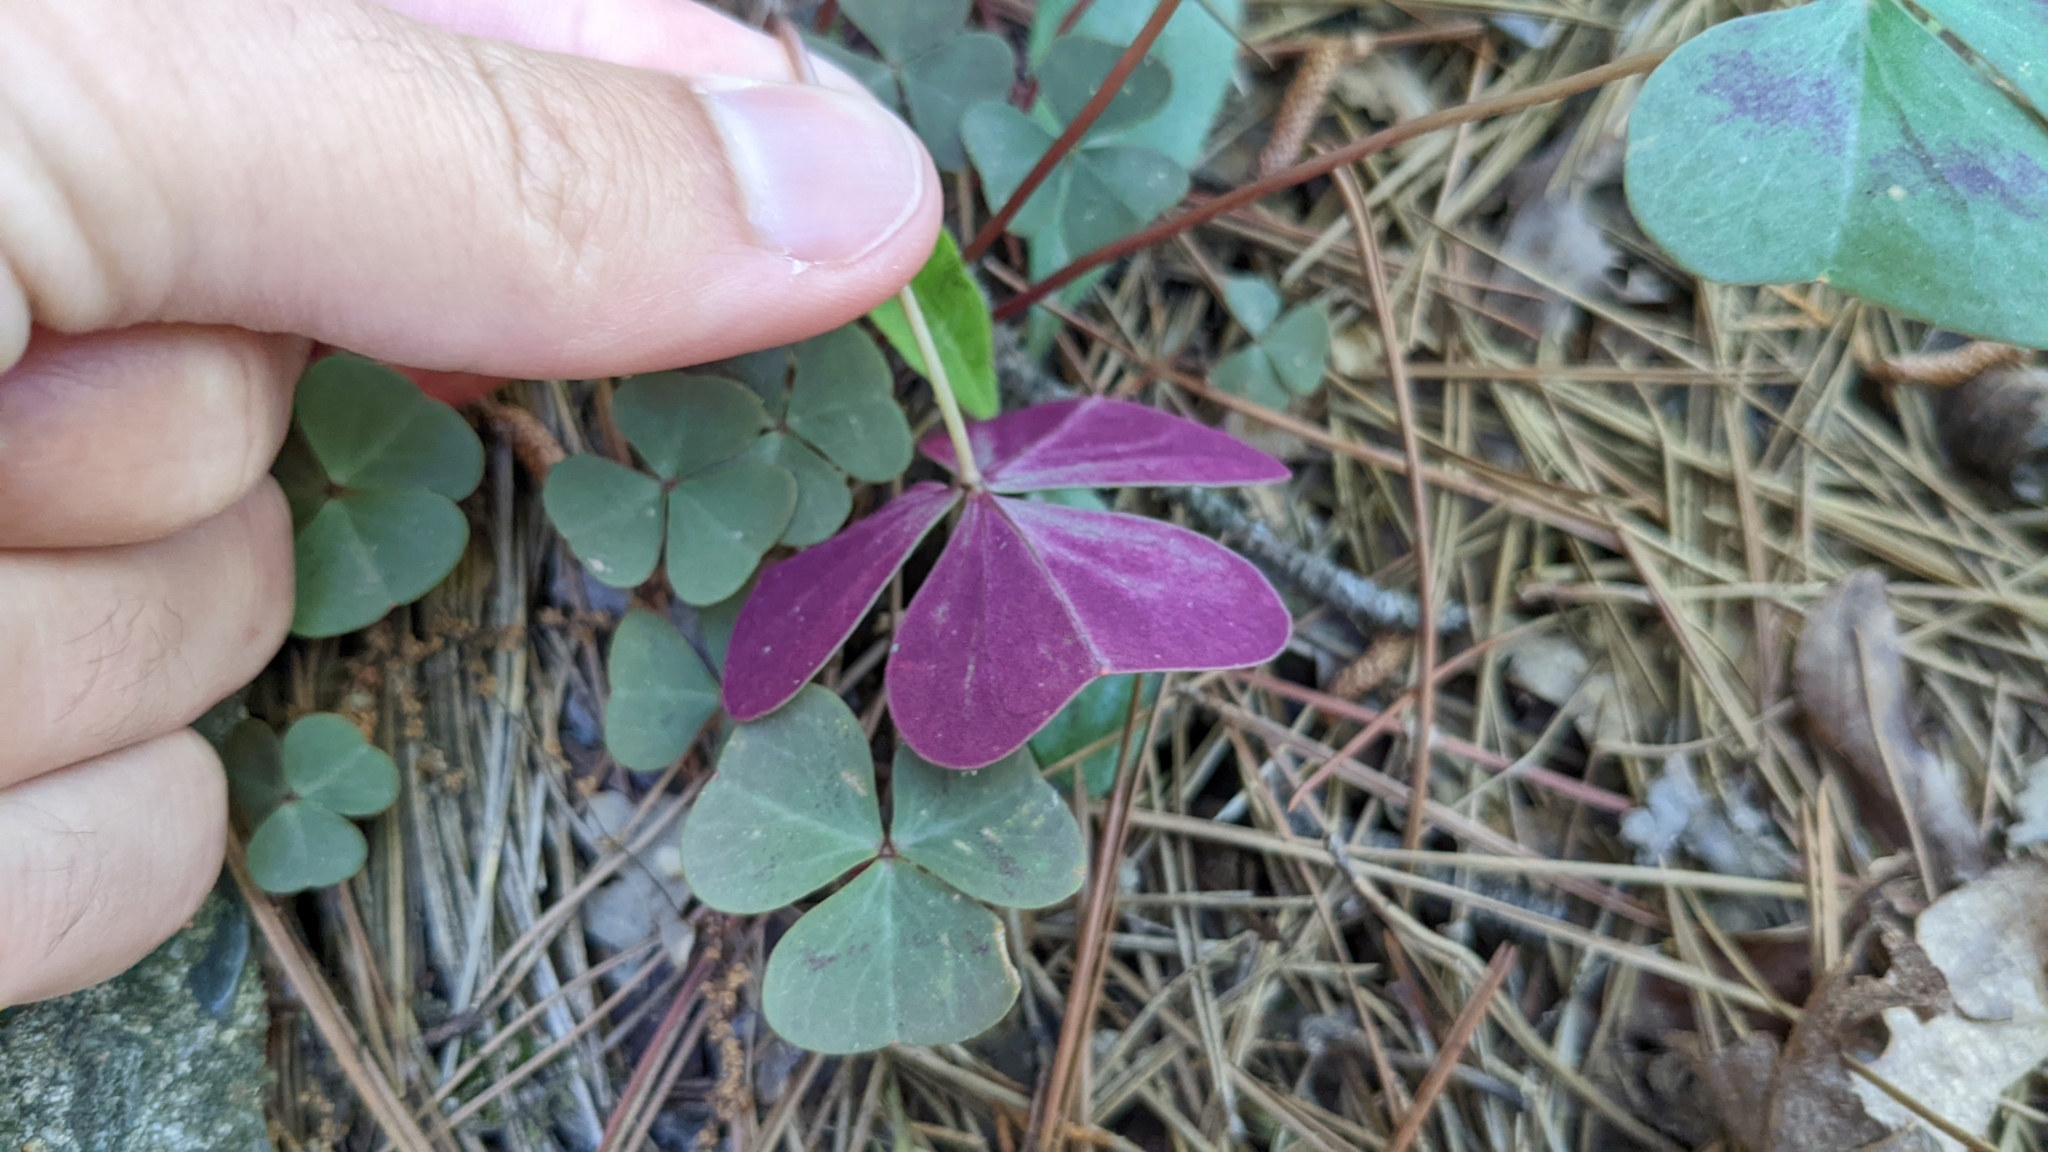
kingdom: Plantae
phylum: Tracheophyta
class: Magnoliopsida
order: Oxalidales
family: Oxalidaceae
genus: Oxalis
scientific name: Oxalis violacea
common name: Violet wood-sorrel
